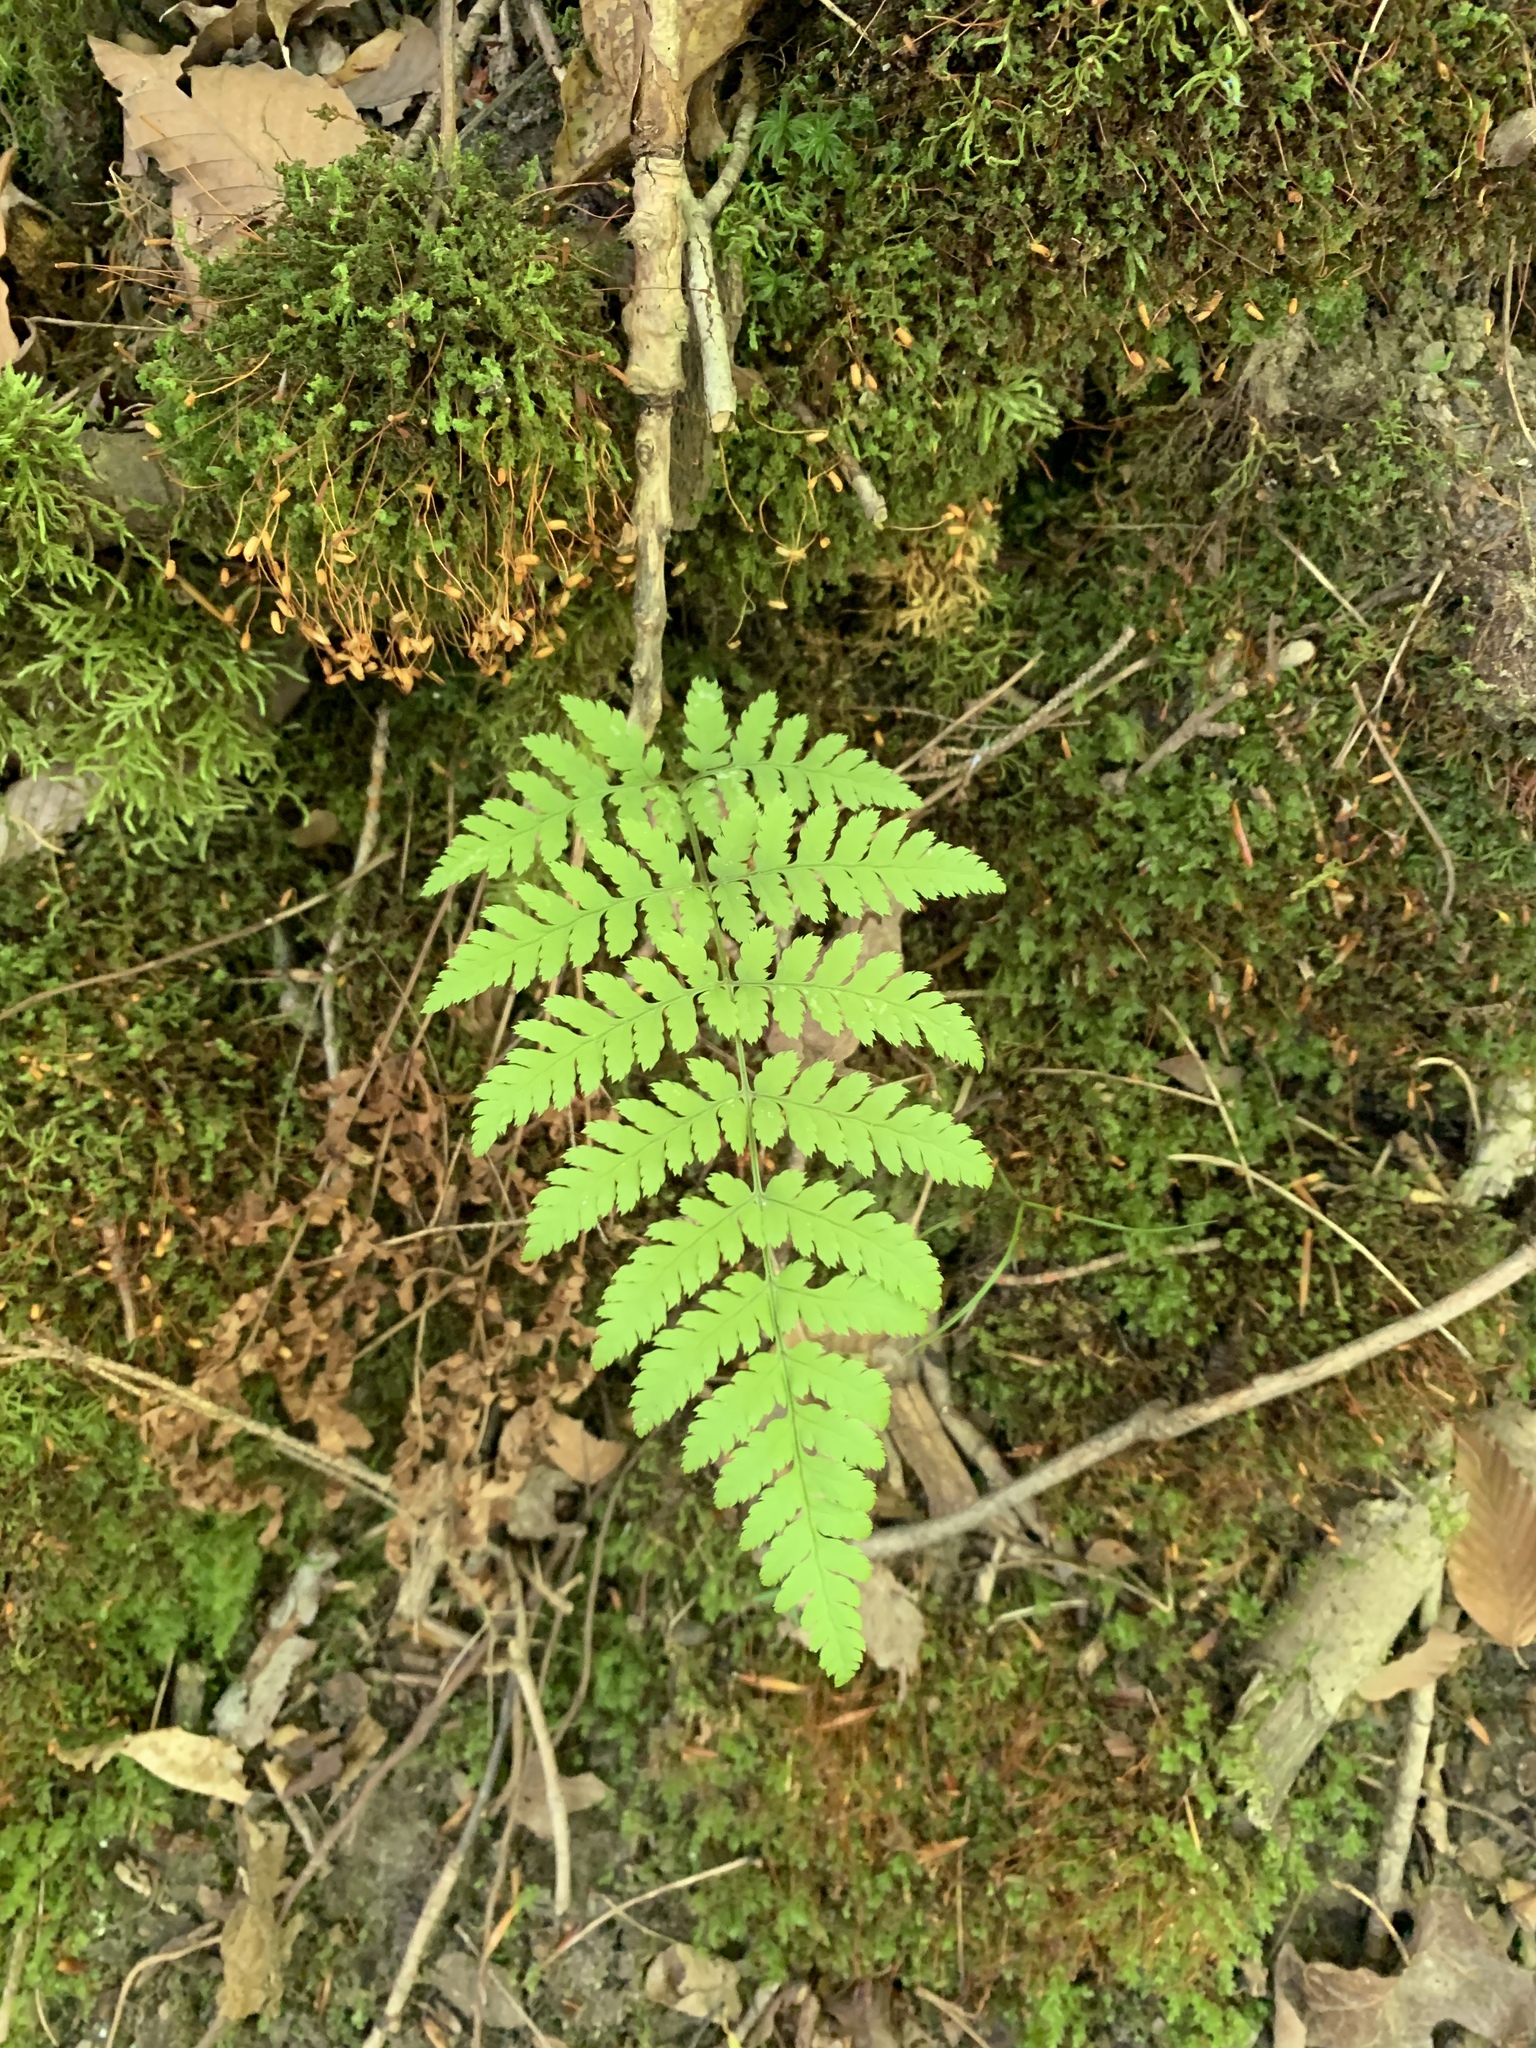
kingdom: Plantae
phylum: Tracheophyta
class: Polypodiopsida
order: Polypodiales
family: Dryopteridaceae
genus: Dryopteris
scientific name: Dryopteris carthusiana
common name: Narrow buckler-fern
